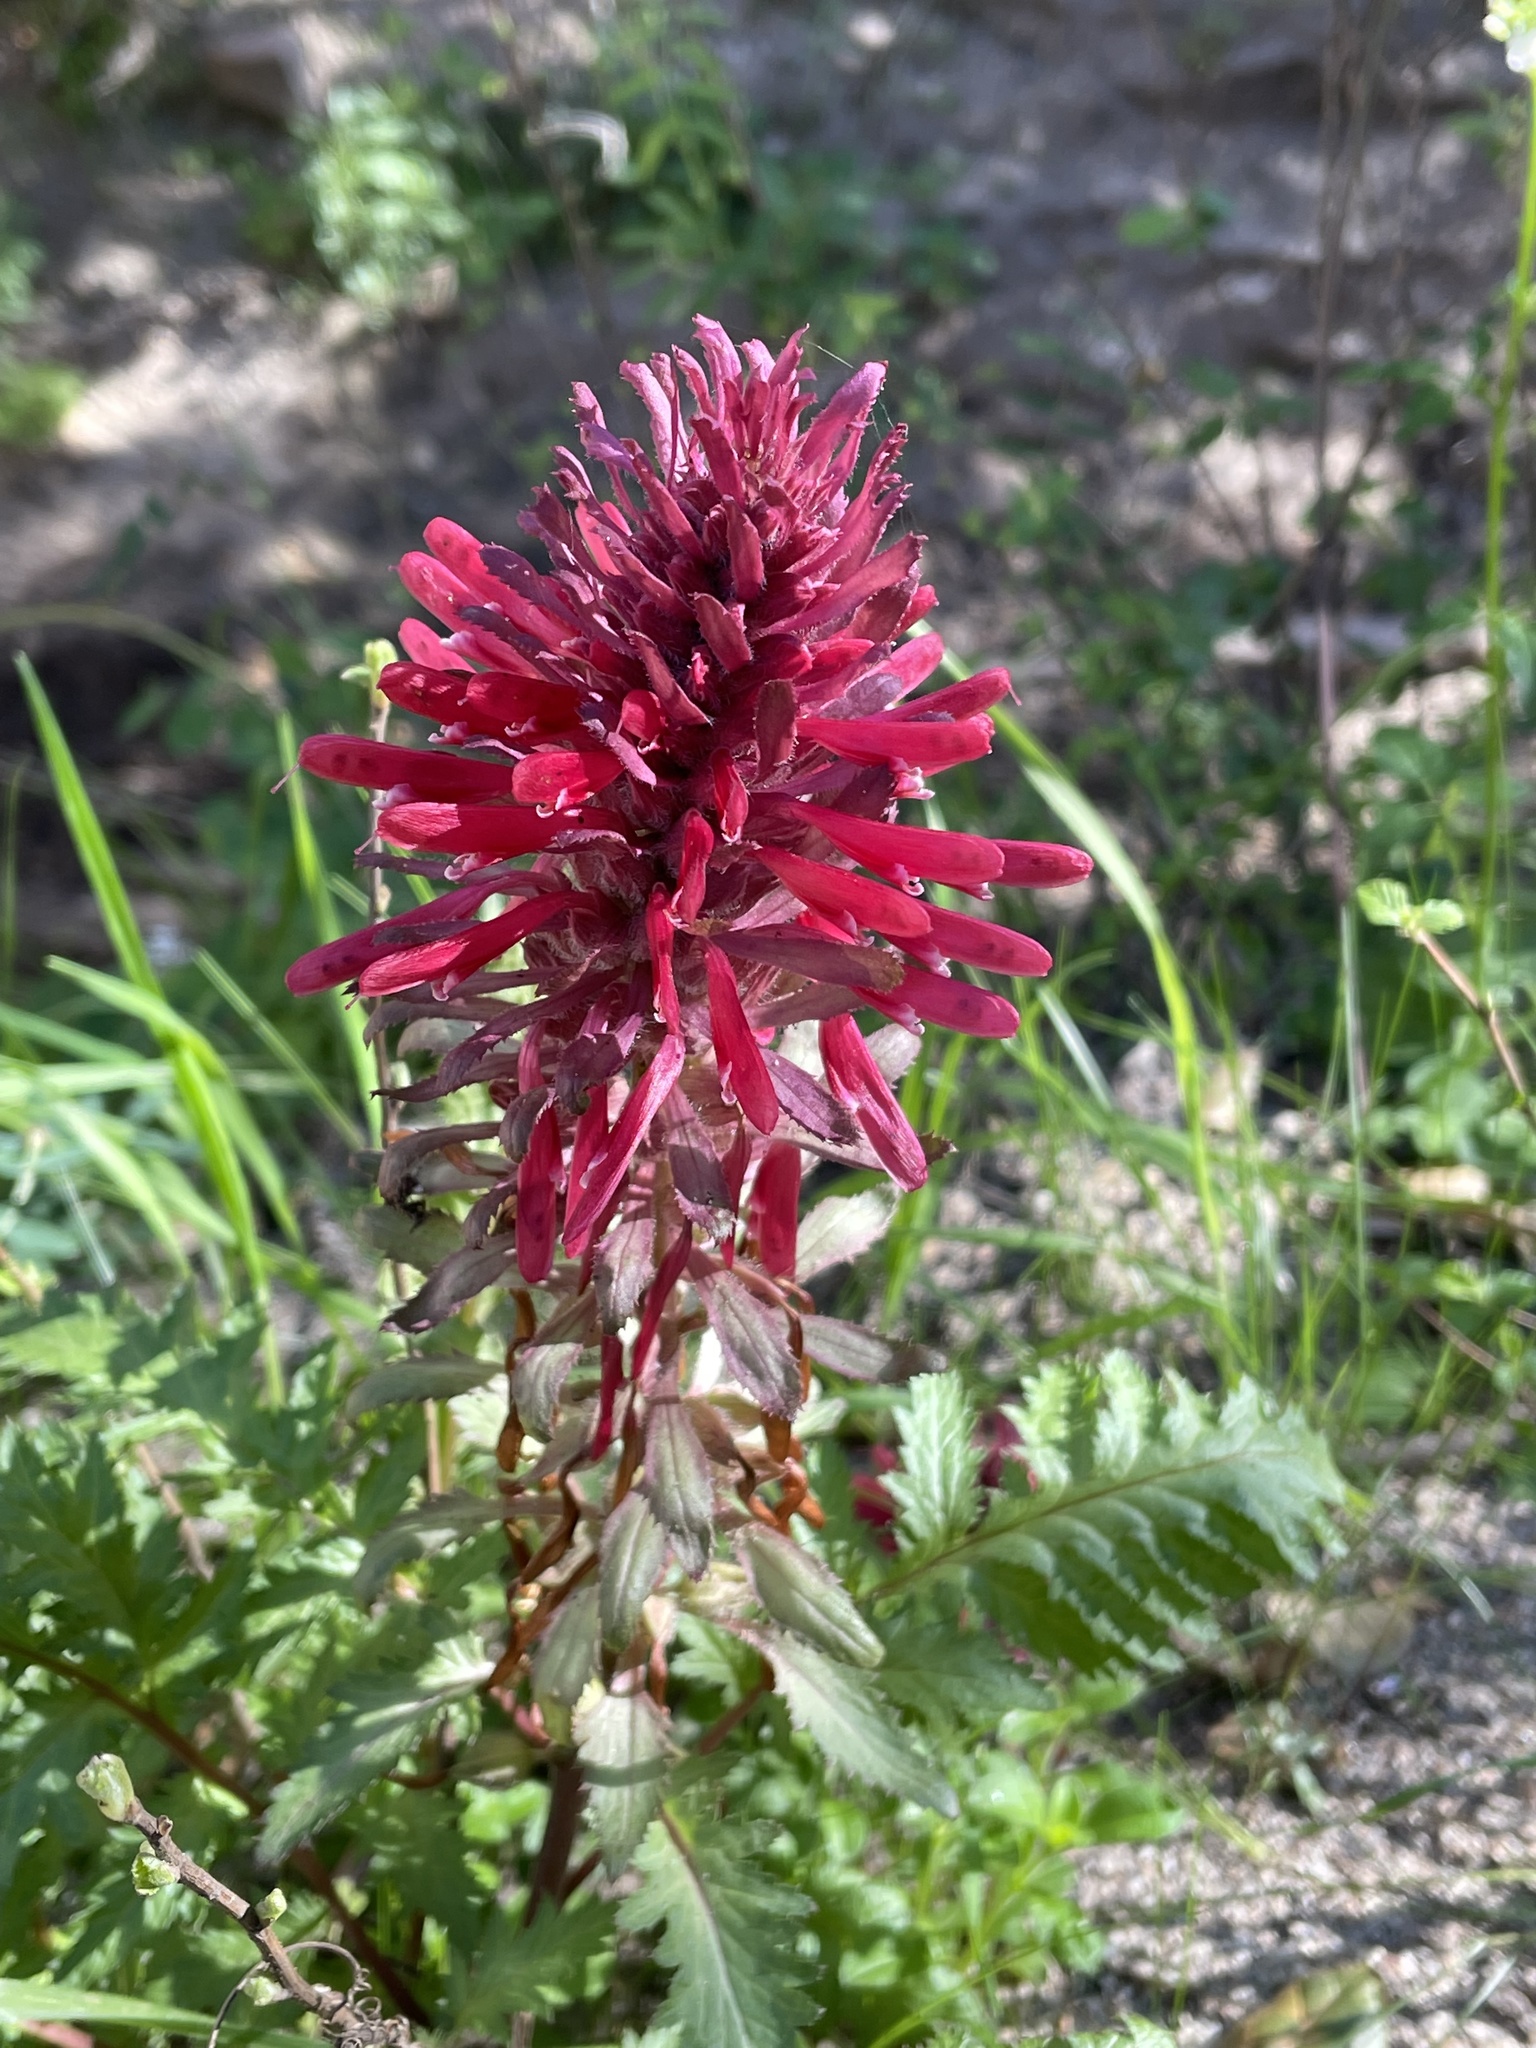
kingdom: Plantae
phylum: Tracheophyta
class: Magnoliopsida
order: Lamiales
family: Orobanchaceae
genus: Pedicularis
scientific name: Pedicularis densiflora
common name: Indian warrior
